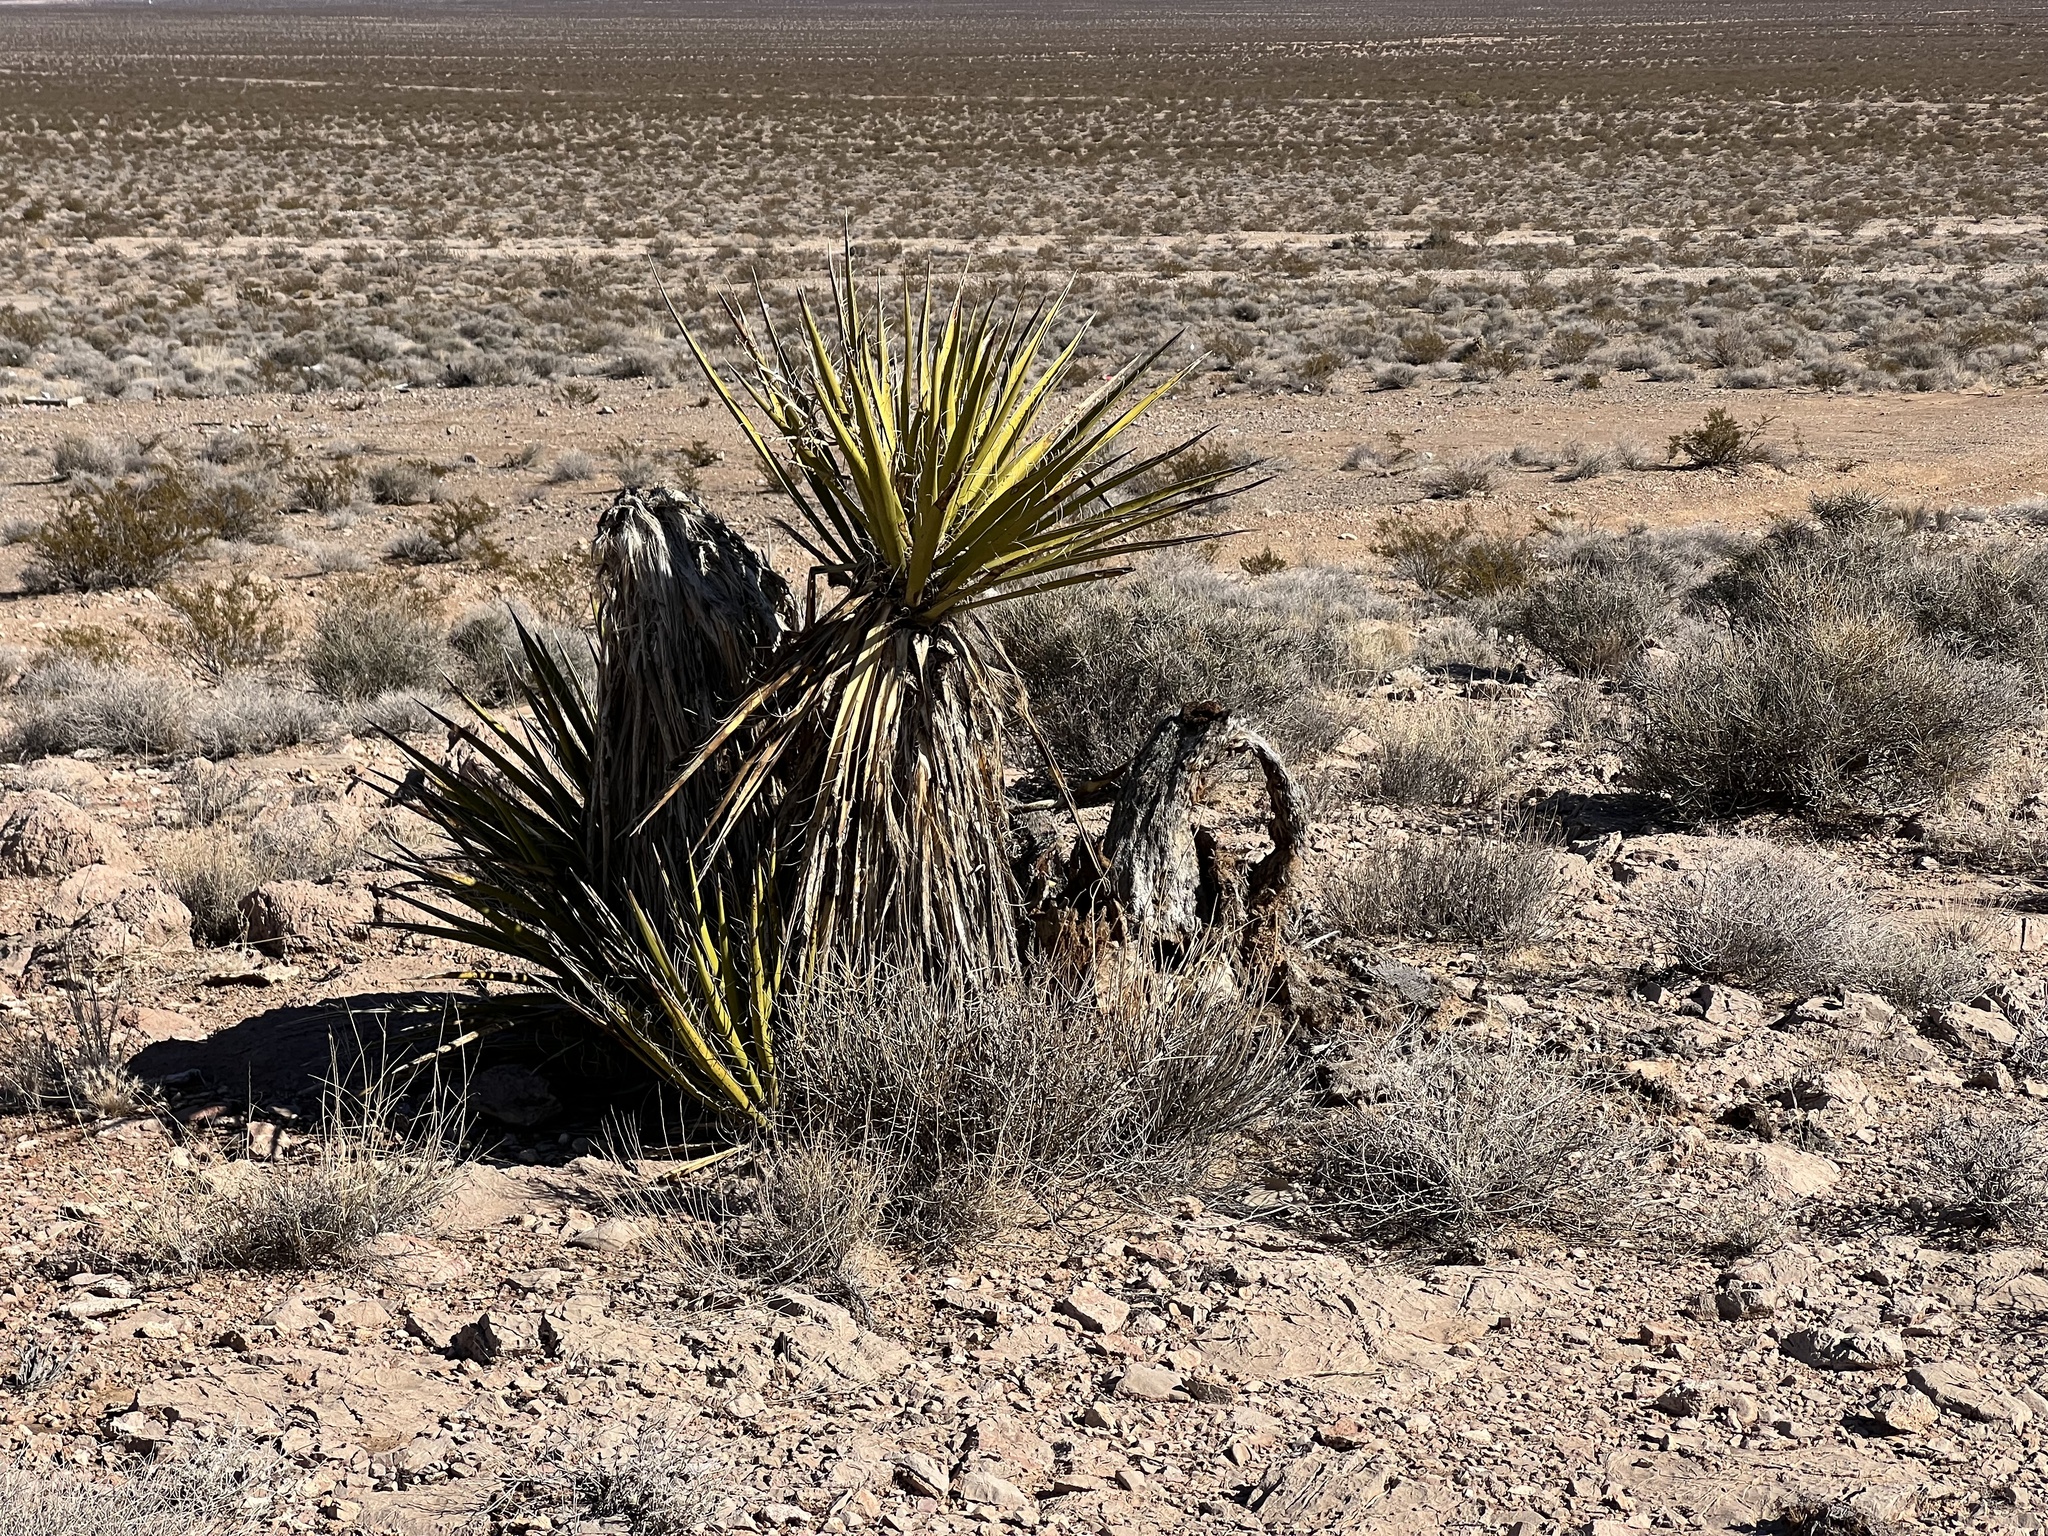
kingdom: Plantae
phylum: Tracheophyta
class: Liliopsida
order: Asparagales
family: Asparagaceae
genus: Yucca
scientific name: Yucca schidigera
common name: Mojave yucca
